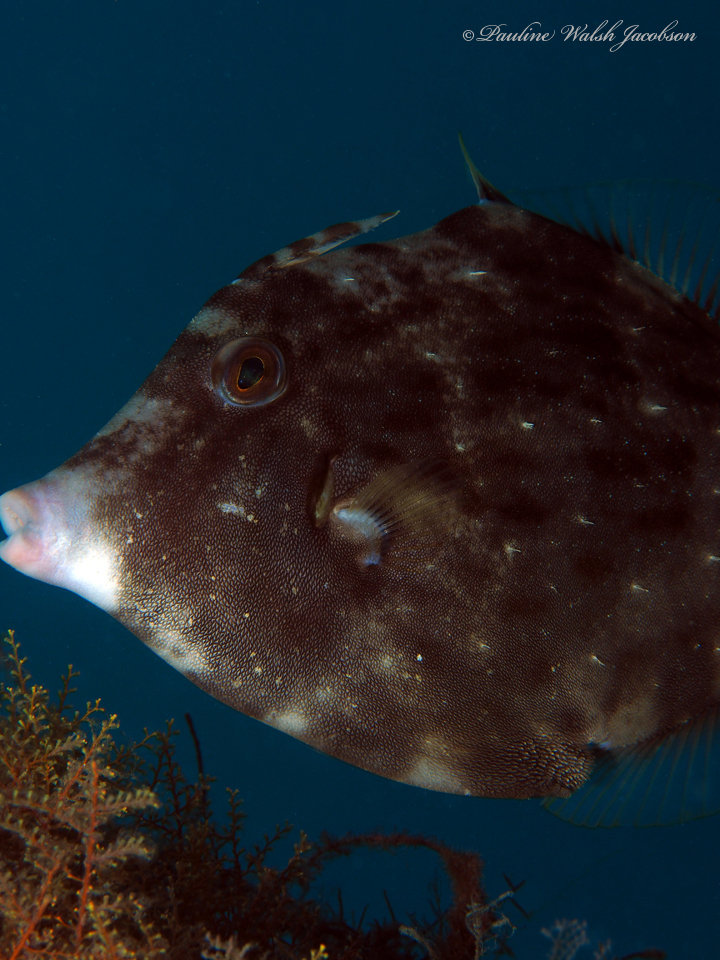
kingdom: Animalia
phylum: Chordata
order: Tetraodontiformes
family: Monacanthidae
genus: Stephanolepis
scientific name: Stephanolepis hispidus
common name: Planehead filefish
